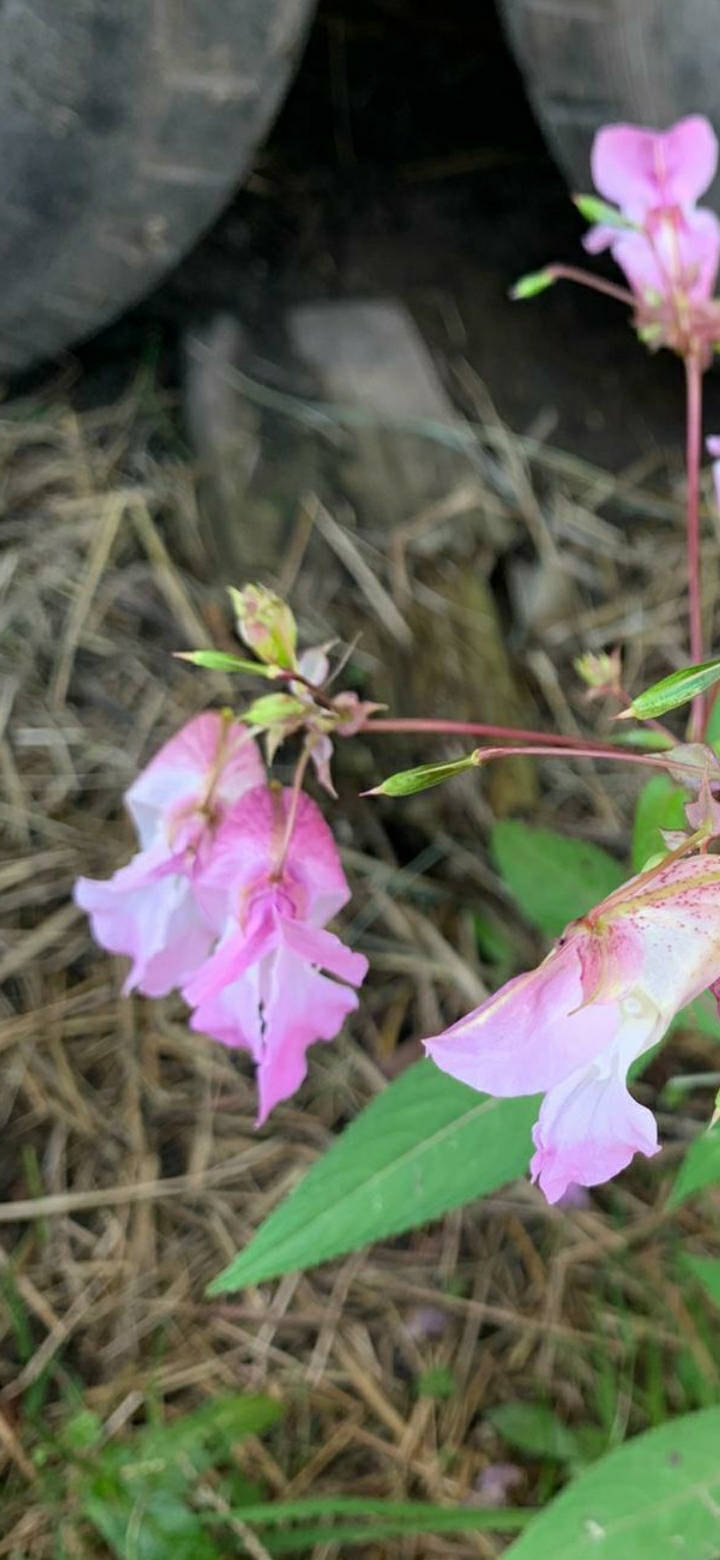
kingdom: Plantae
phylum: Tracheophyta
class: Magnoliopsida
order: Ericales
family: Balsaminaceae
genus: Impatiens
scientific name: Impatiens glandulifera
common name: Himalayan balsam
